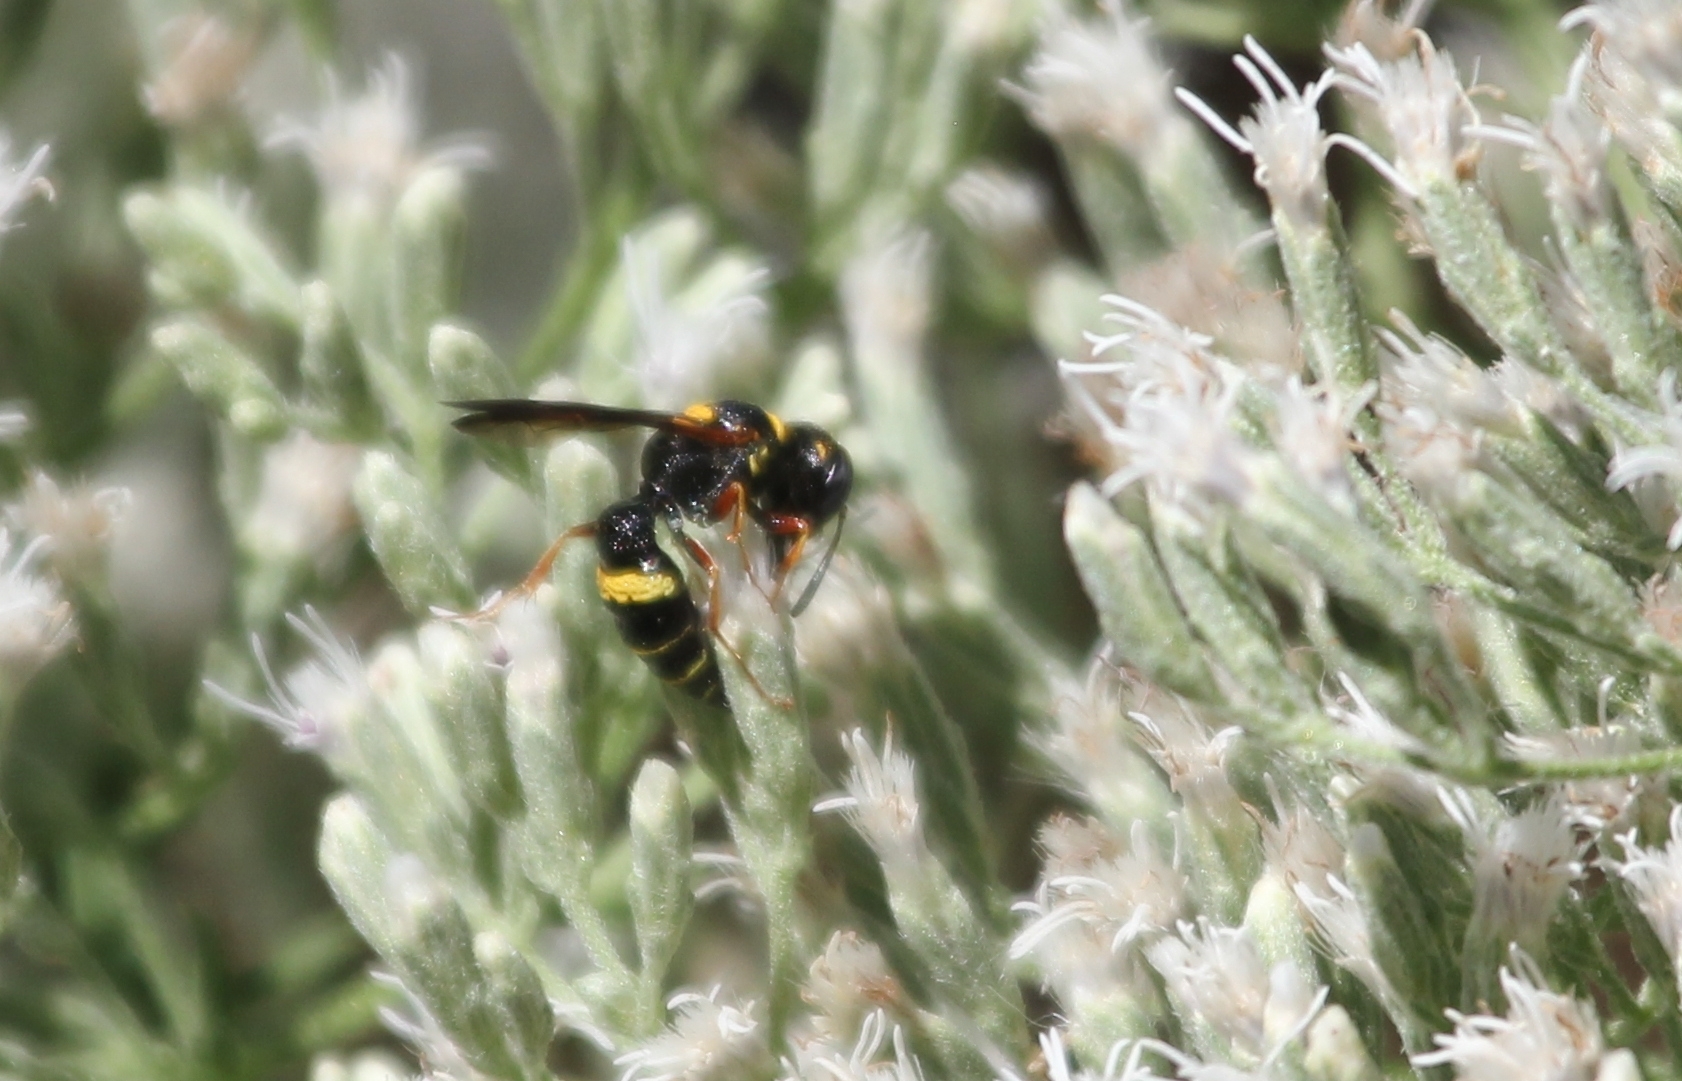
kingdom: Animalia
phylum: Arthropoda
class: Insecta
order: Hymenoptera
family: Crabronidae
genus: Philanthus
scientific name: Philanthus gibbosus
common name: Humped beewolf
